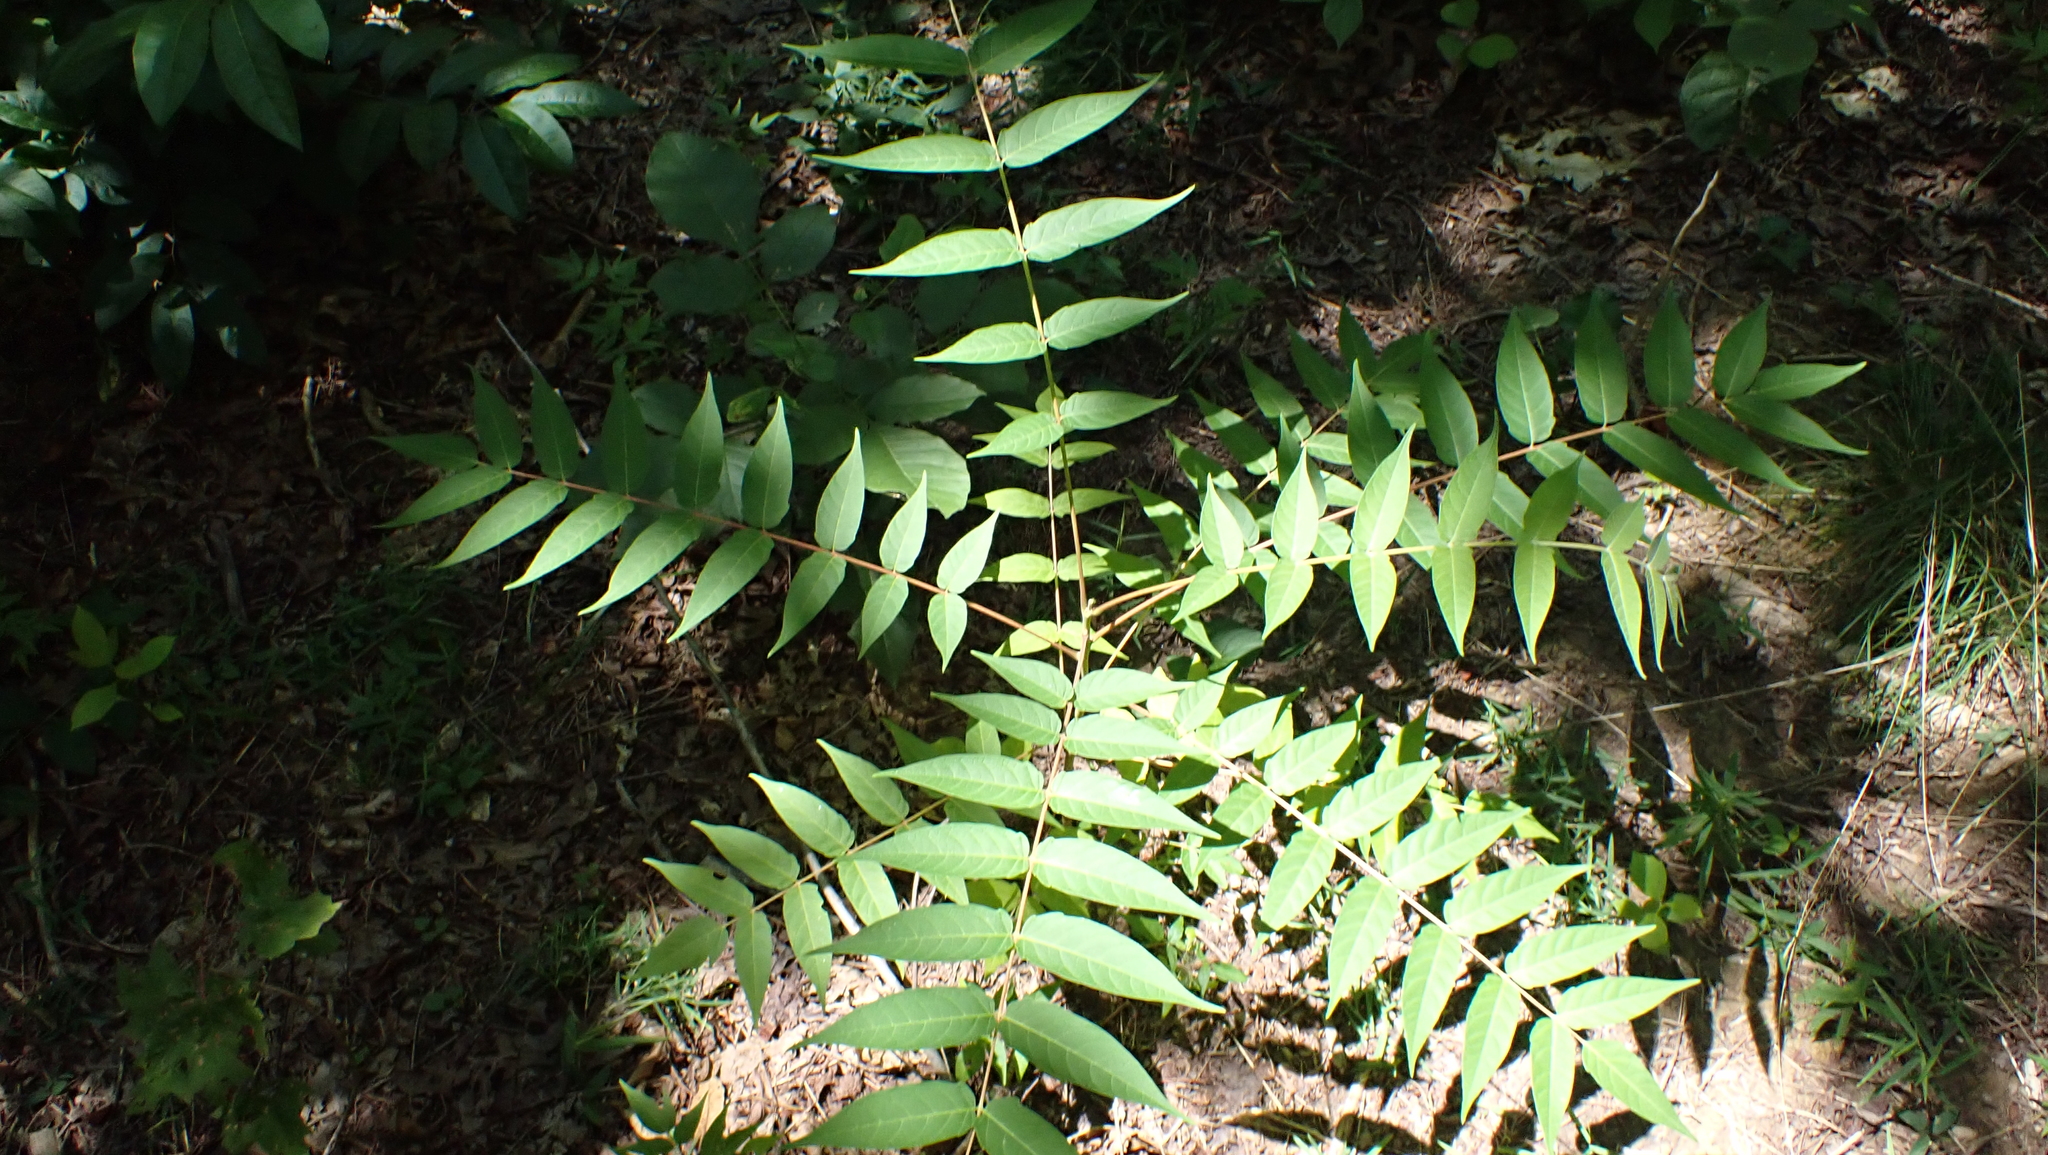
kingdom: Plantae
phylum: Tracheophyta
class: Magnoliopsida
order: Sapindales
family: Simaroubaceae
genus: Ailanthus
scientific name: Ailanthus altissima
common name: Tree-of-heaven
